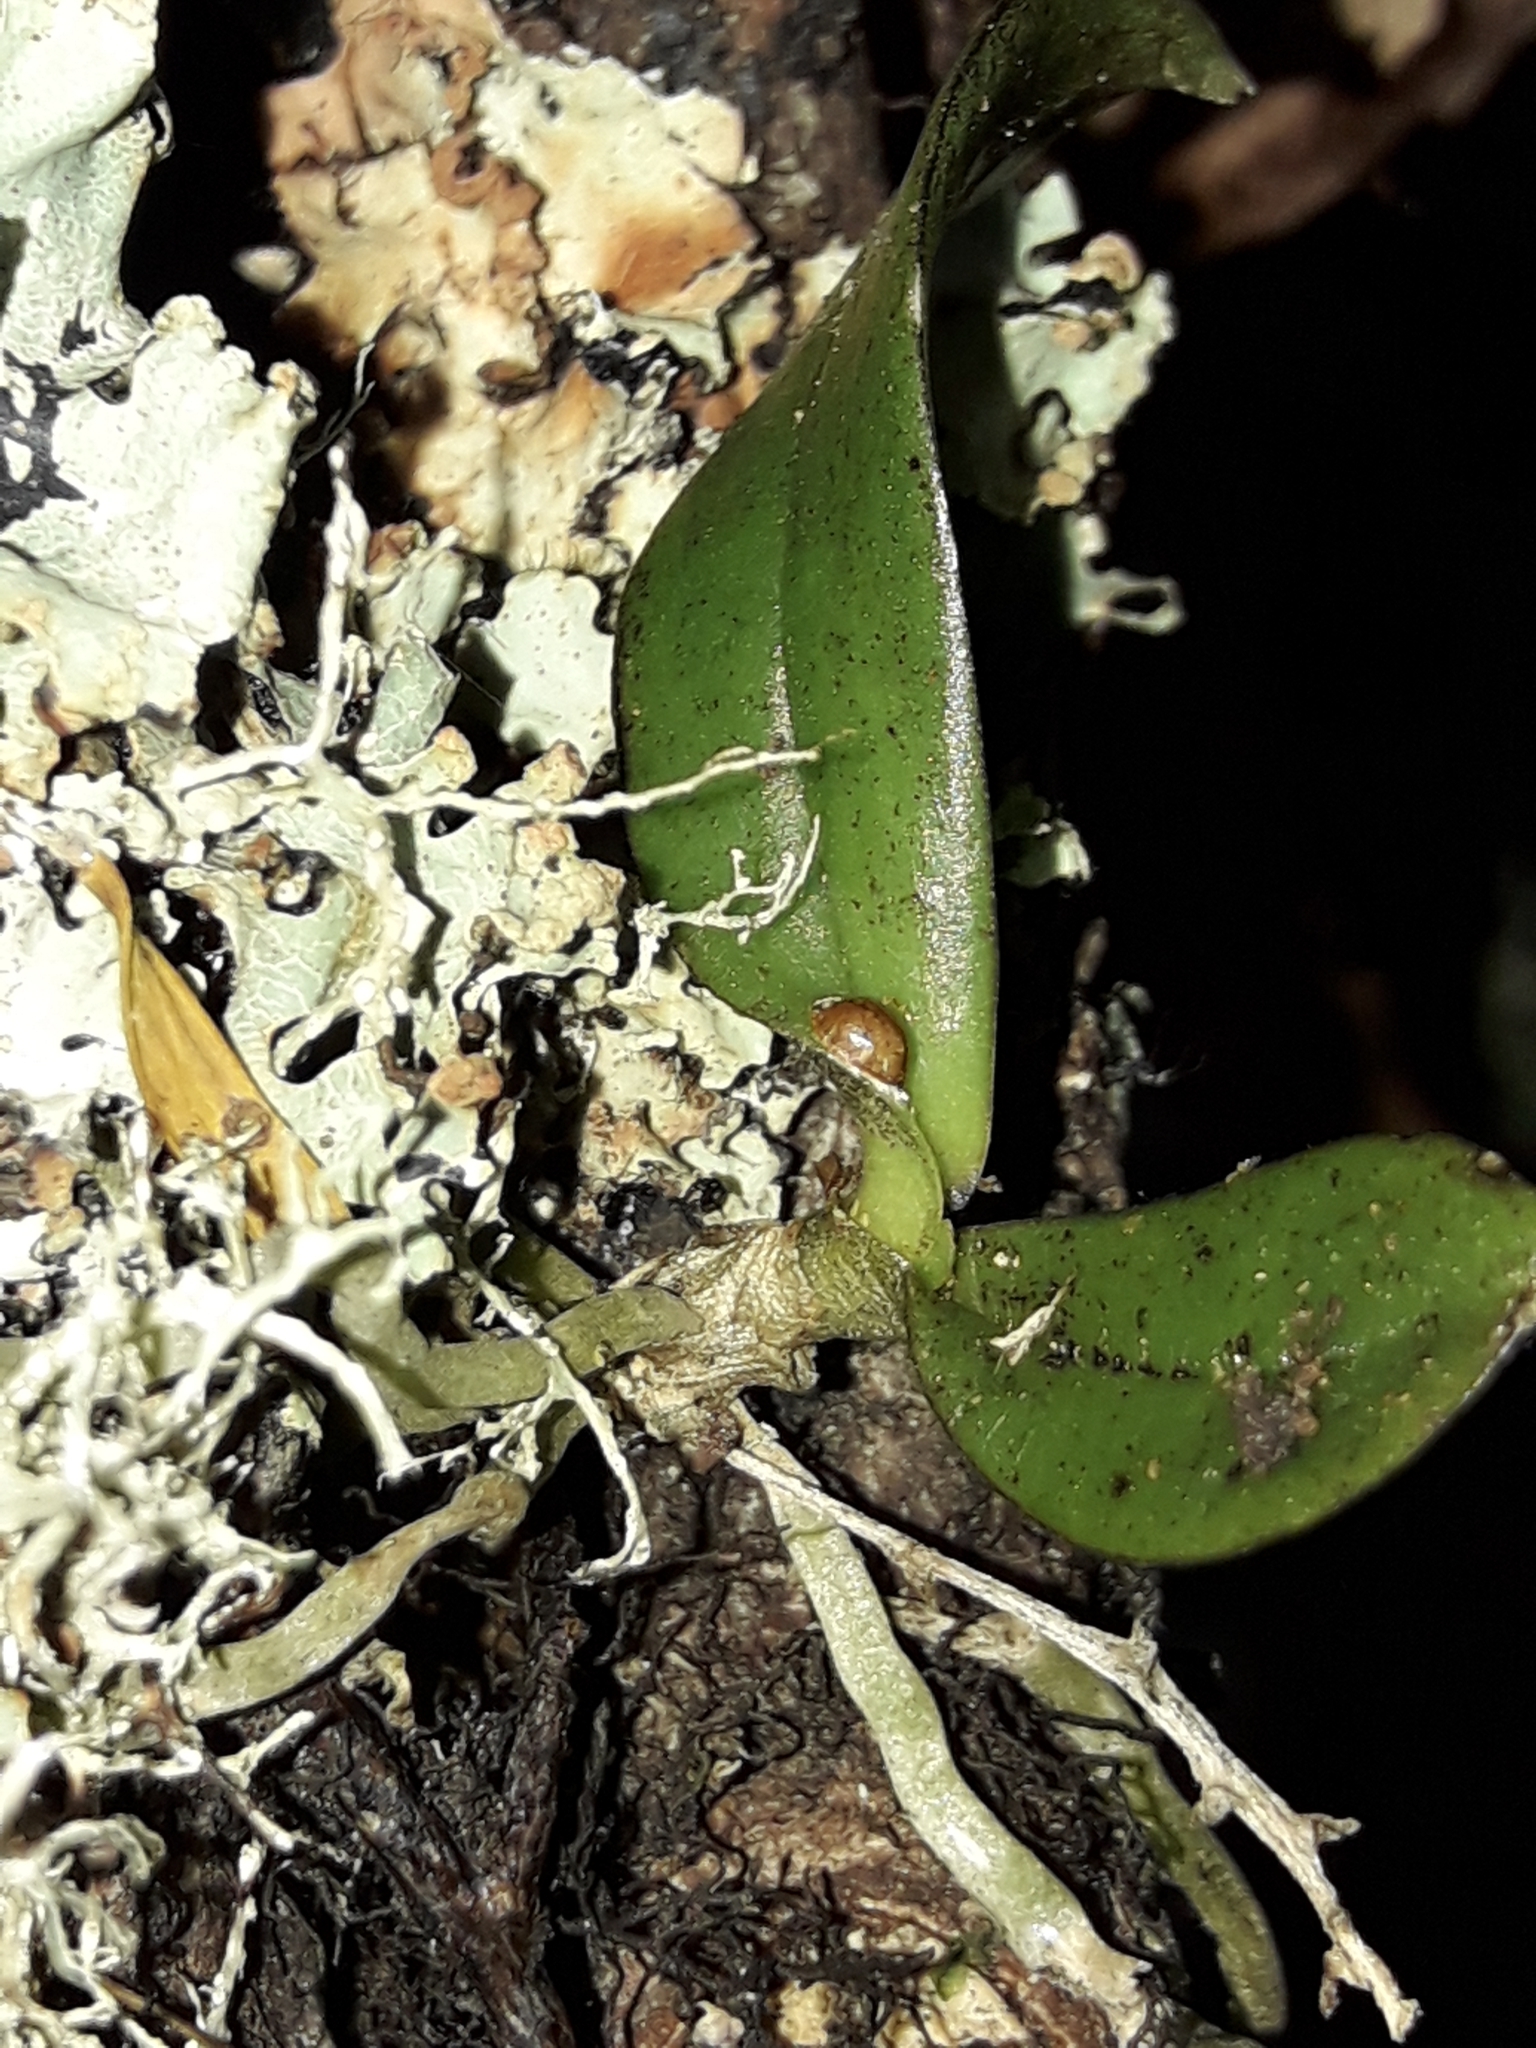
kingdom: Plantae
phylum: Tracheophyta
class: Liliopsida
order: Asparagales
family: Orchidaceae
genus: Drymoanthus
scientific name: Drymoanthus adversus
